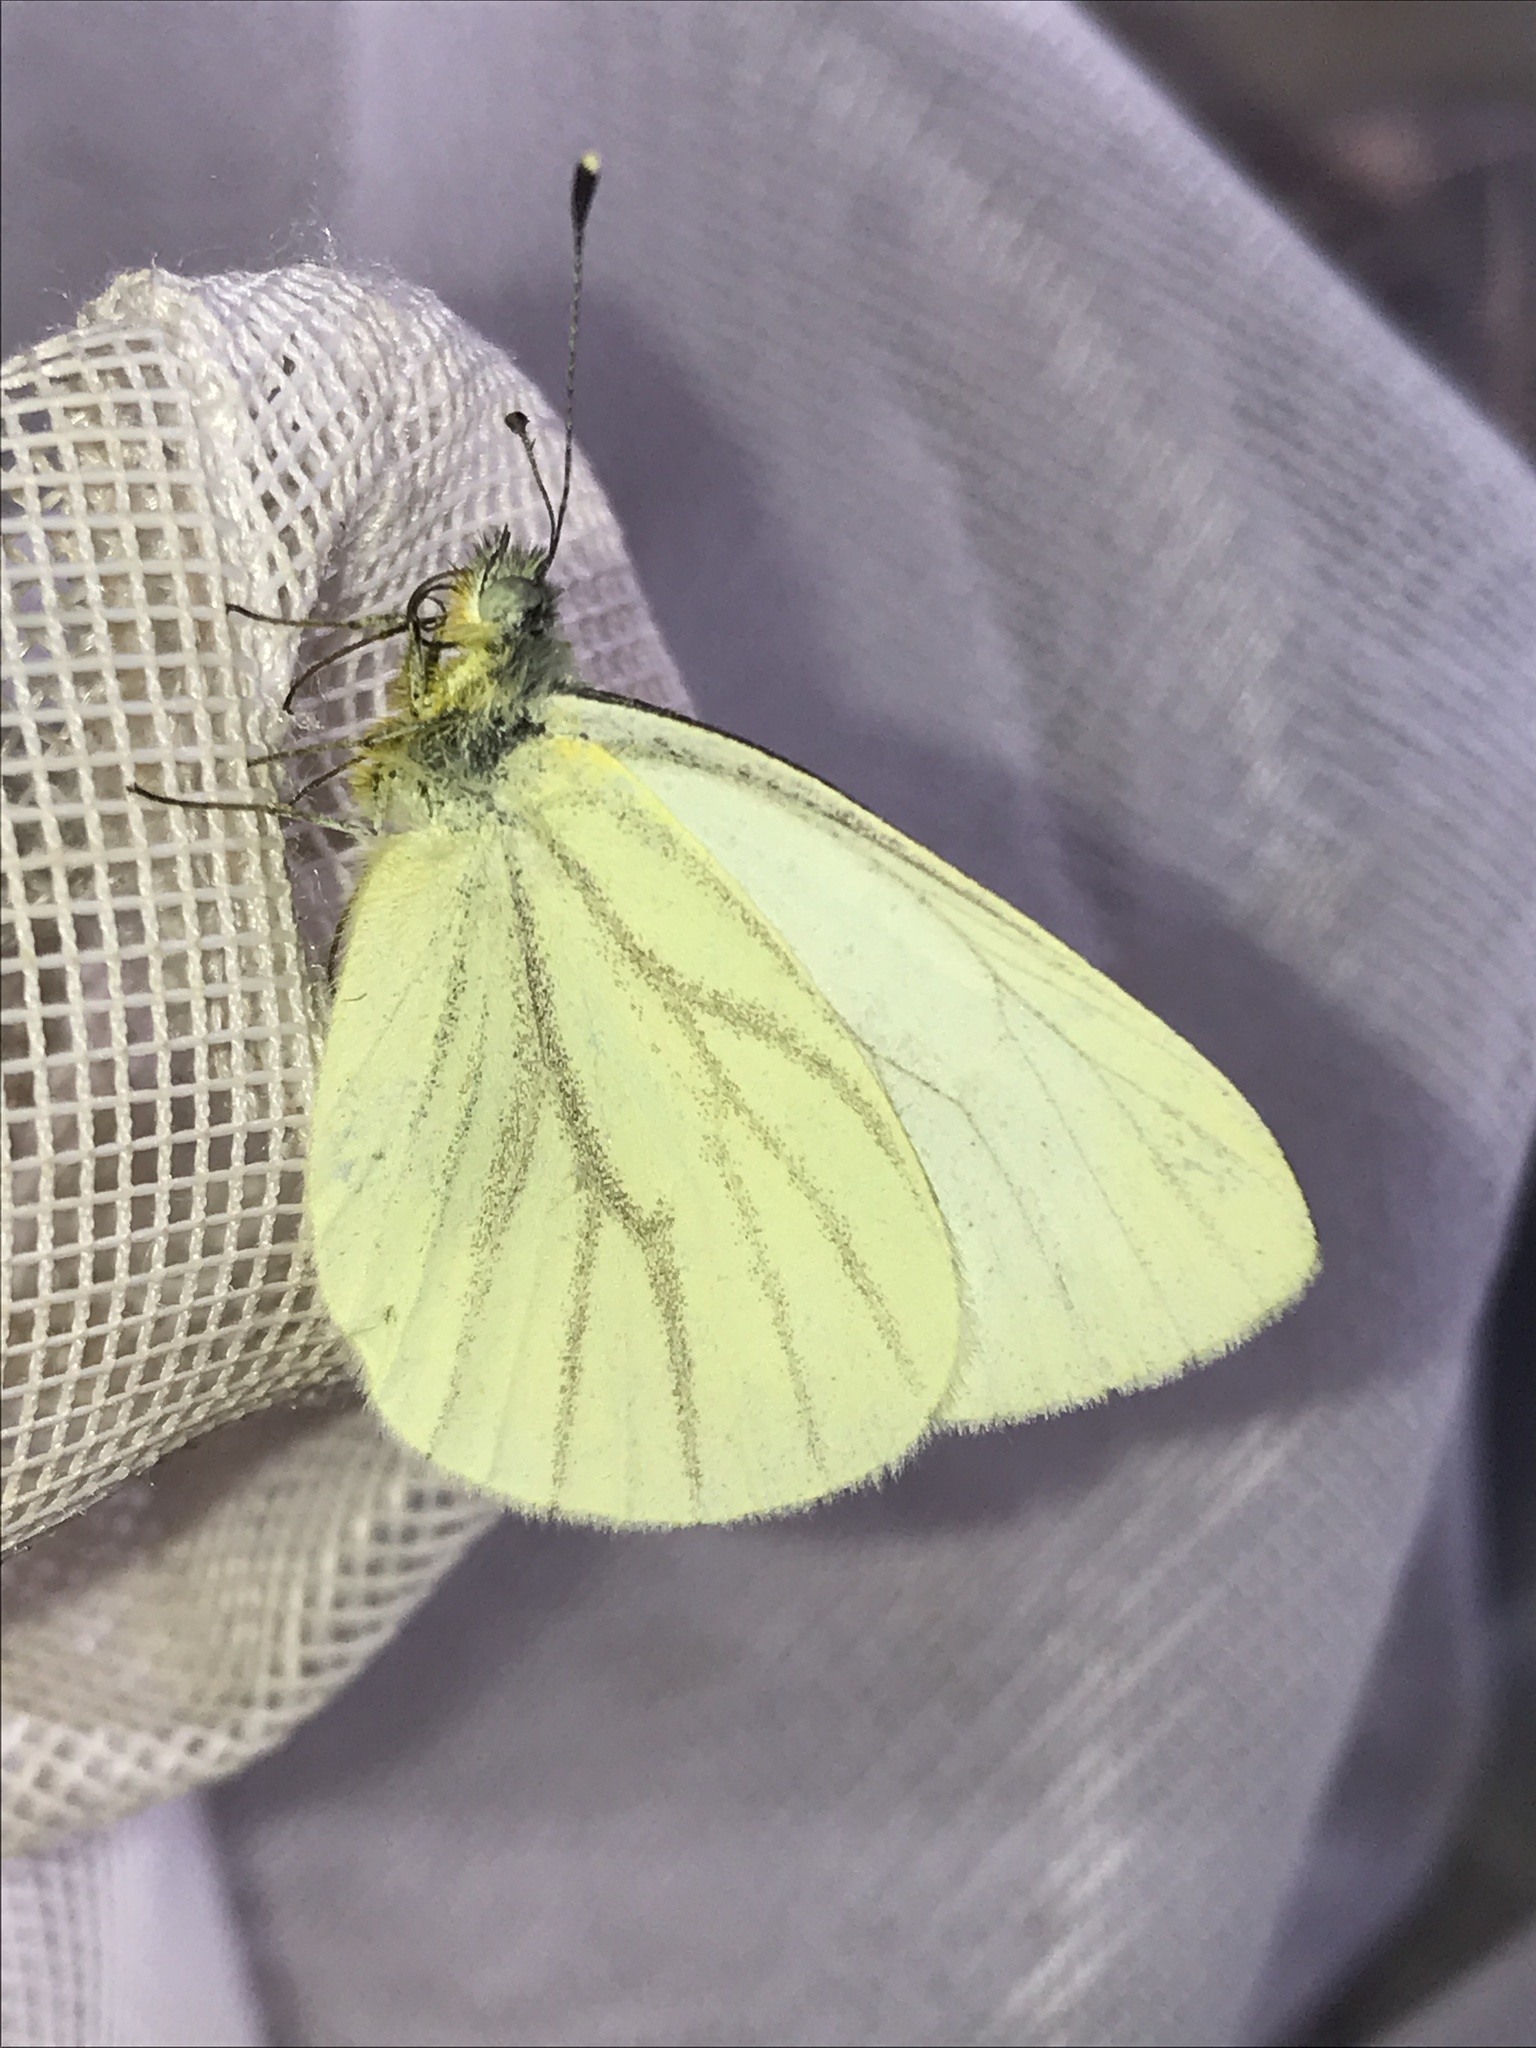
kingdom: Animalia
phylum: Arthropoda
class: Insecta
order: Lepidoptera
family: Pieridae
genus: Pieris
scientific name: Pieris marginalis
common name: Margined white
